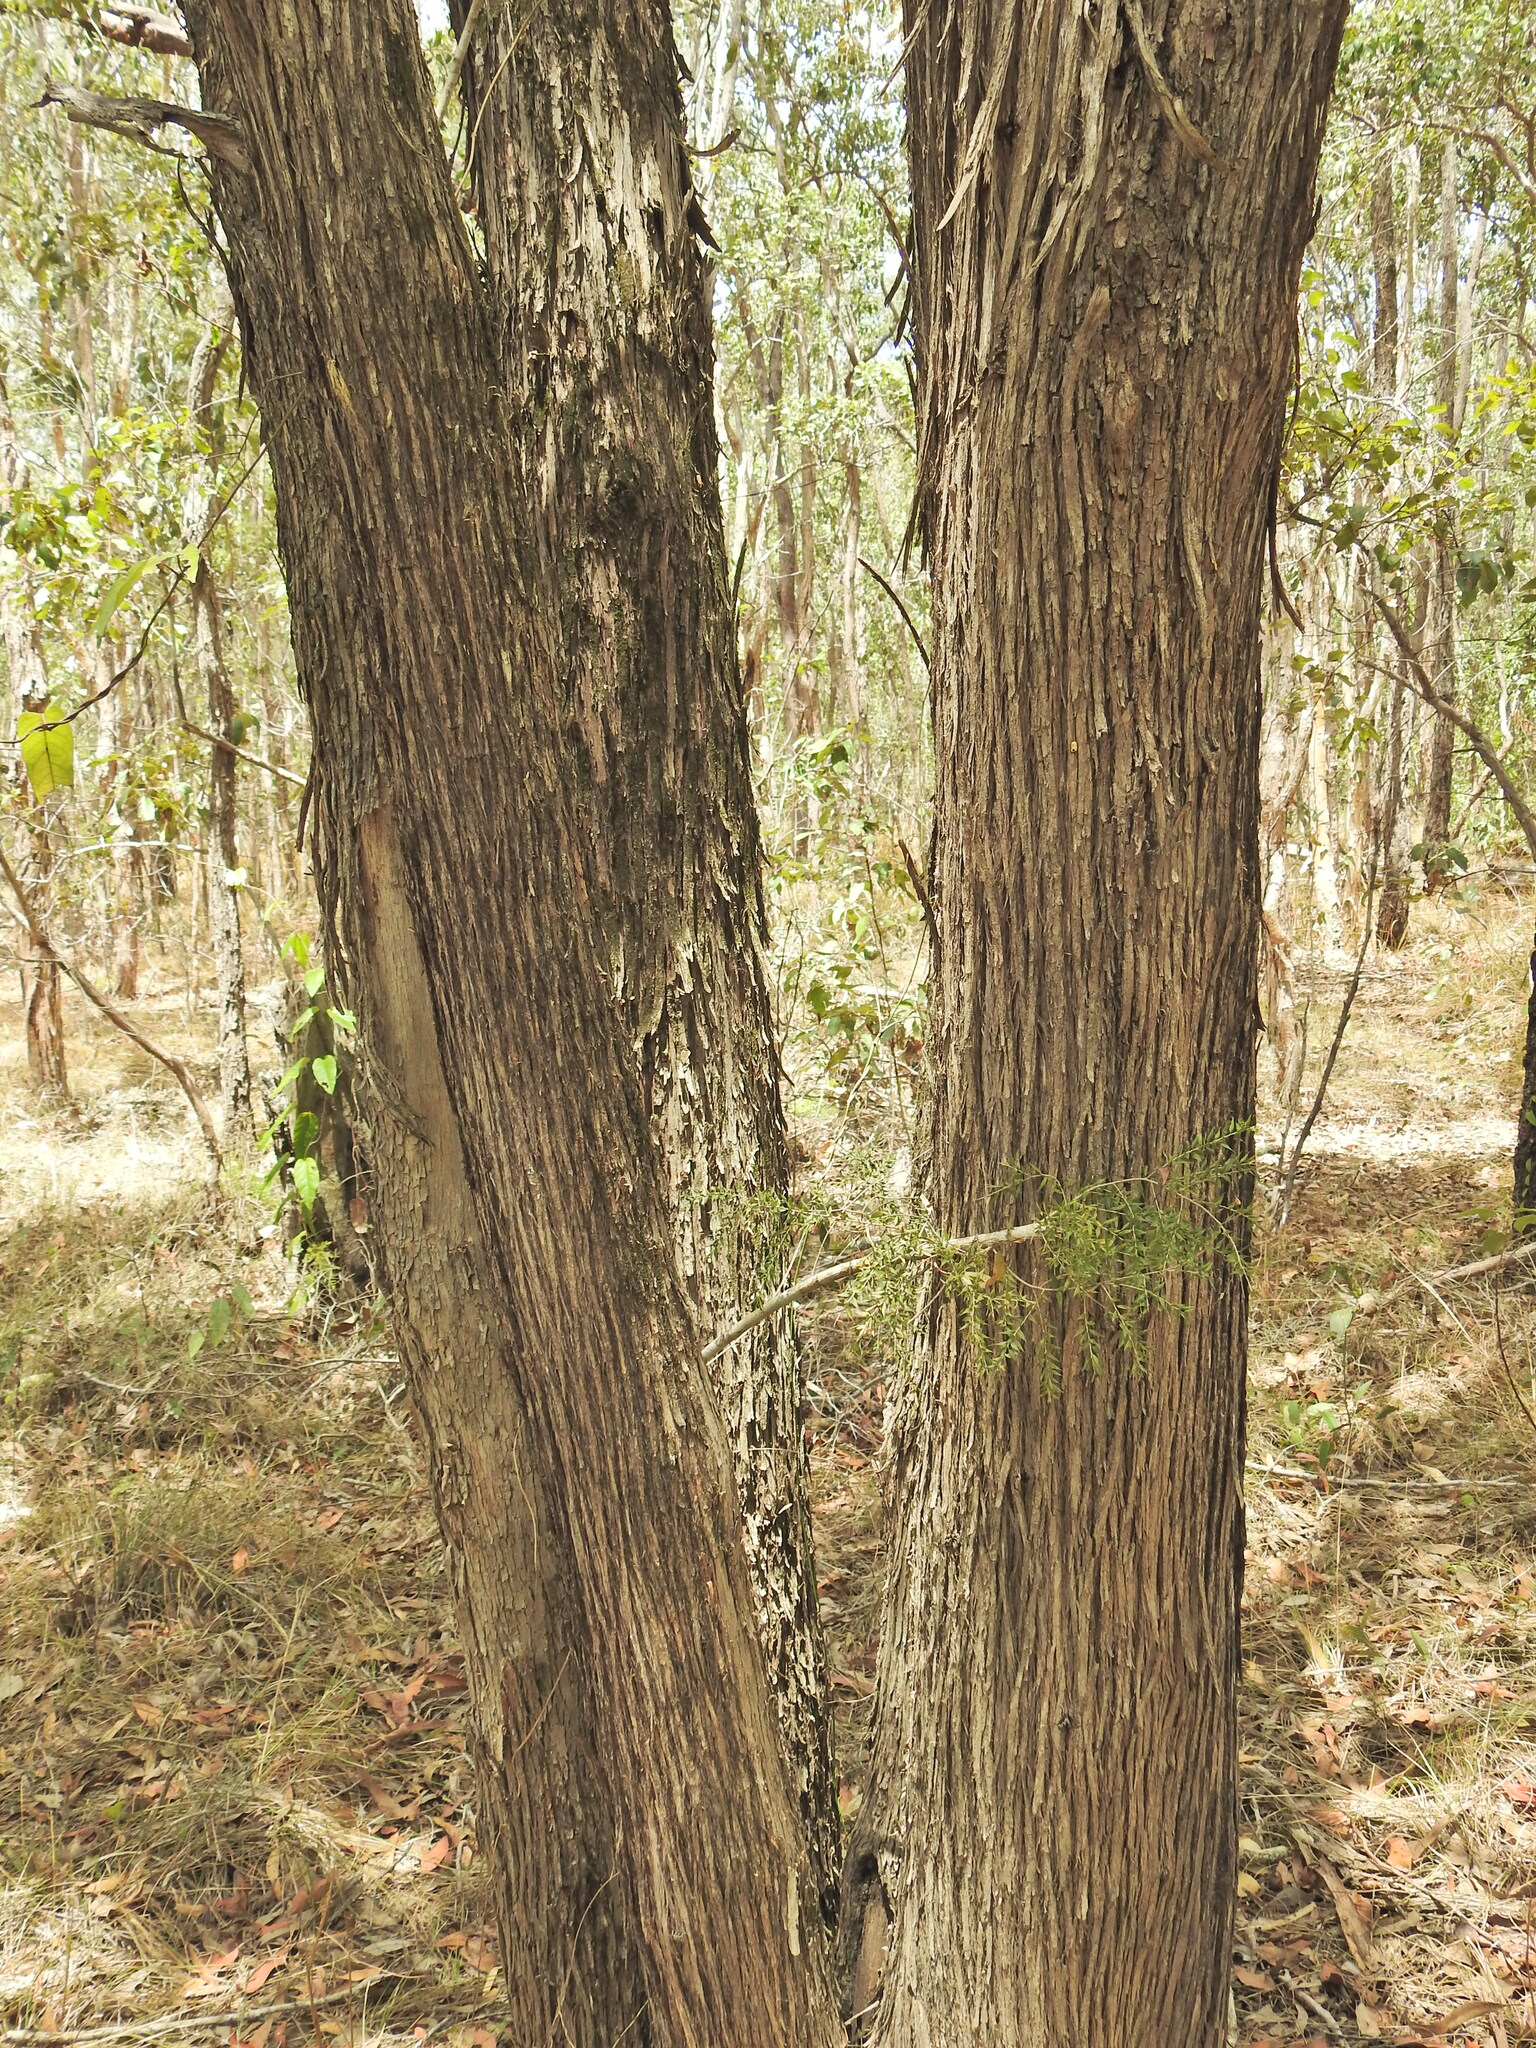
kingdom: Plantae
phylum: Tracheophyta
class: Magnoliopsida
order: Myrtales
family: Myrtaceae
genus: Melaleuca
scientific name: Melaleuca styphelioides
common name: Prickly paperbark
